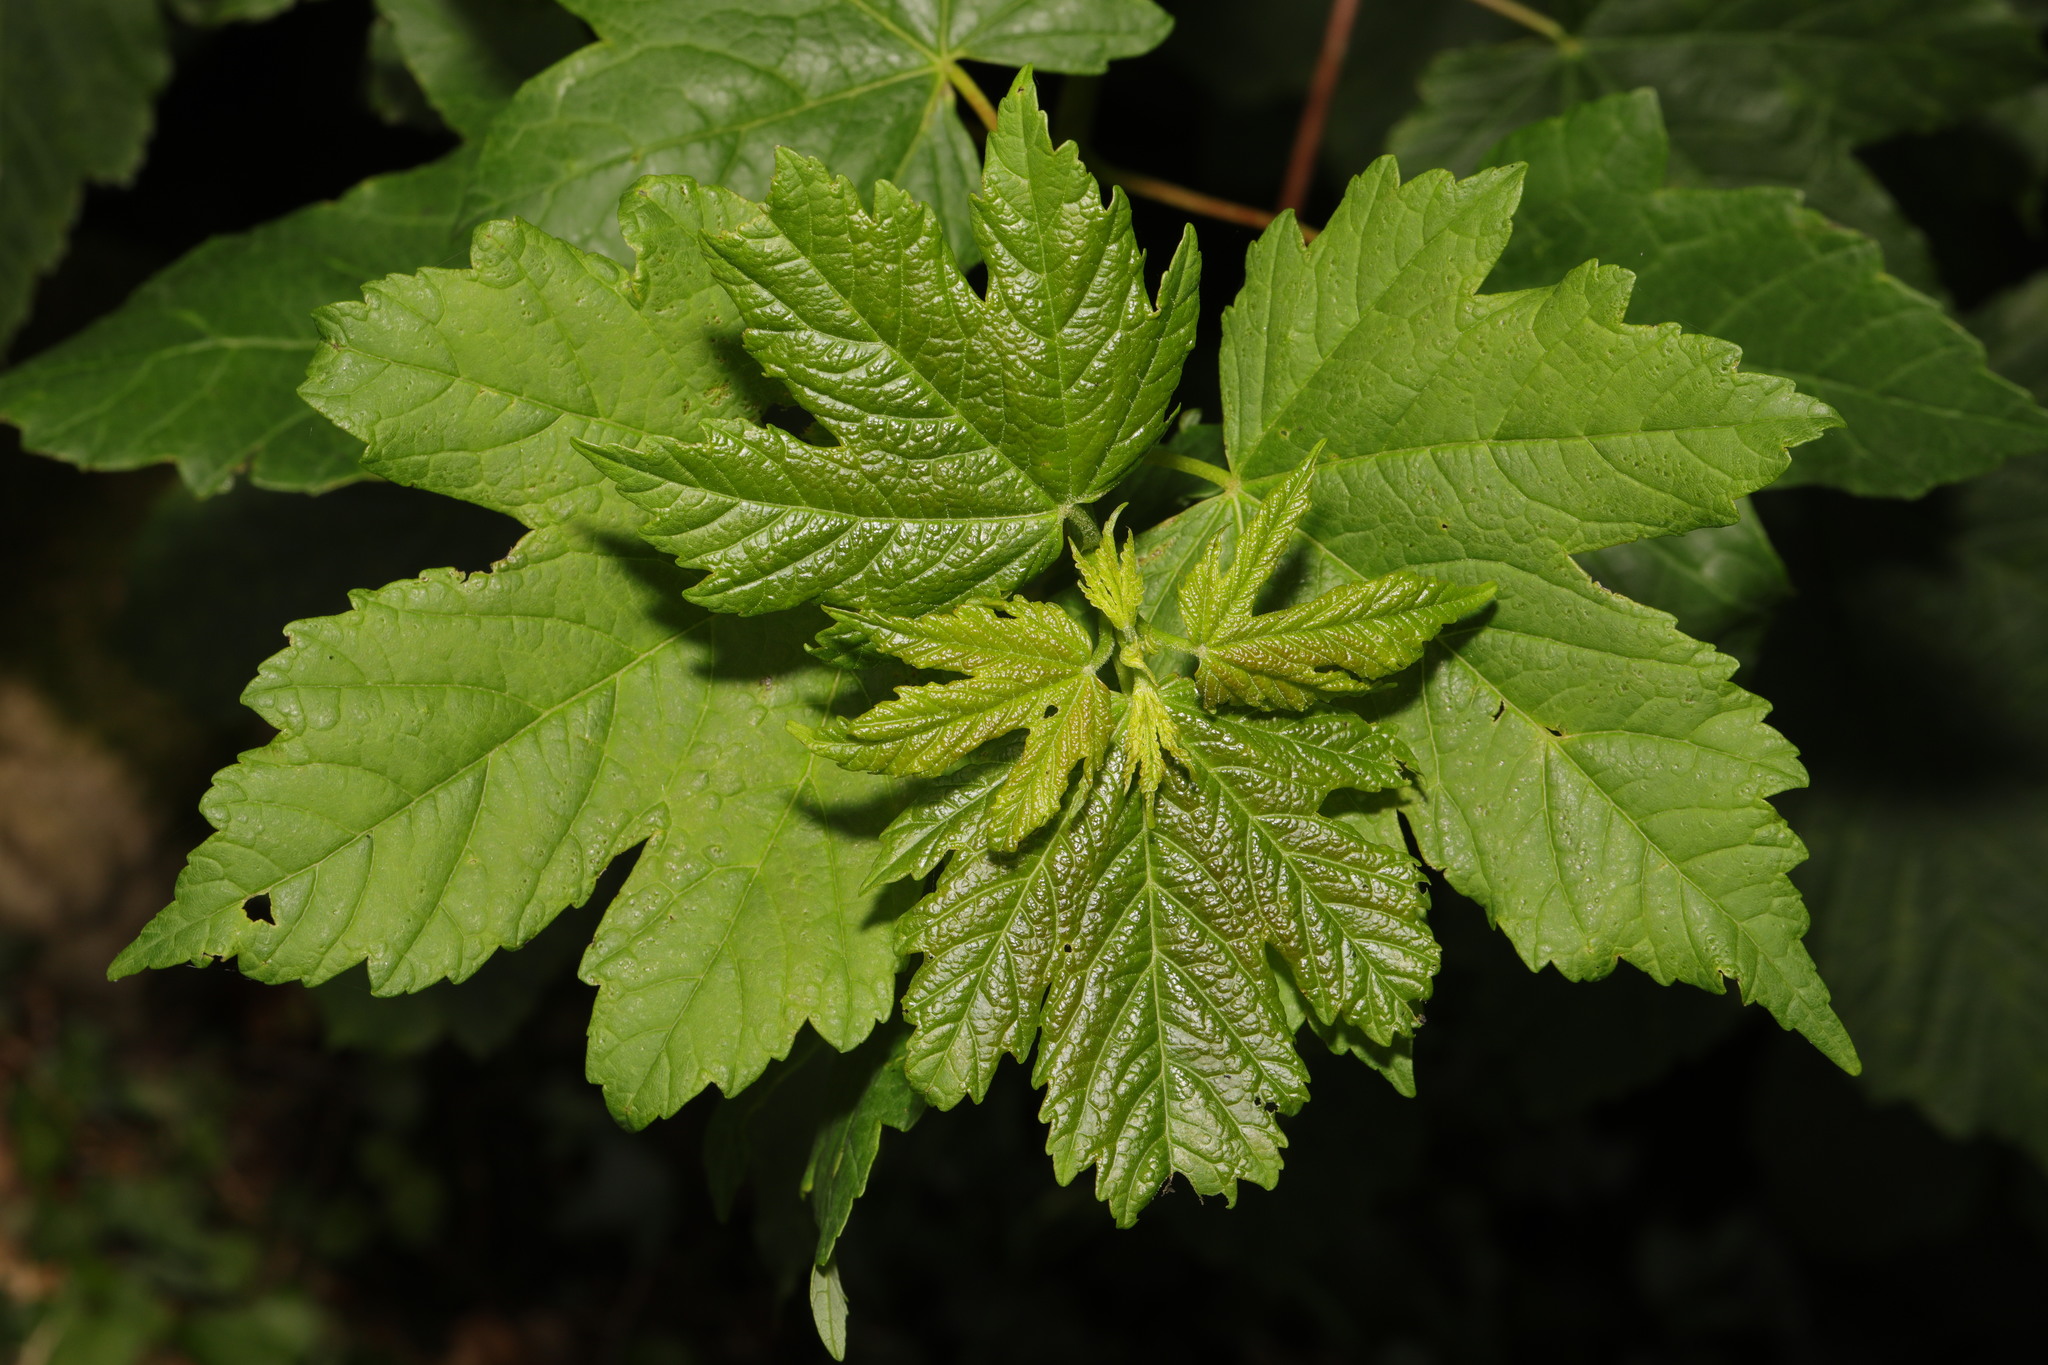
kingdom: Plantae
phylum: Tracheophyta
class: Magnoliopsida
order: Sapindales
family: Sapindaceae
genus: Acer
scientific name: Acer pseudoplatanus
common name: Sycamore
